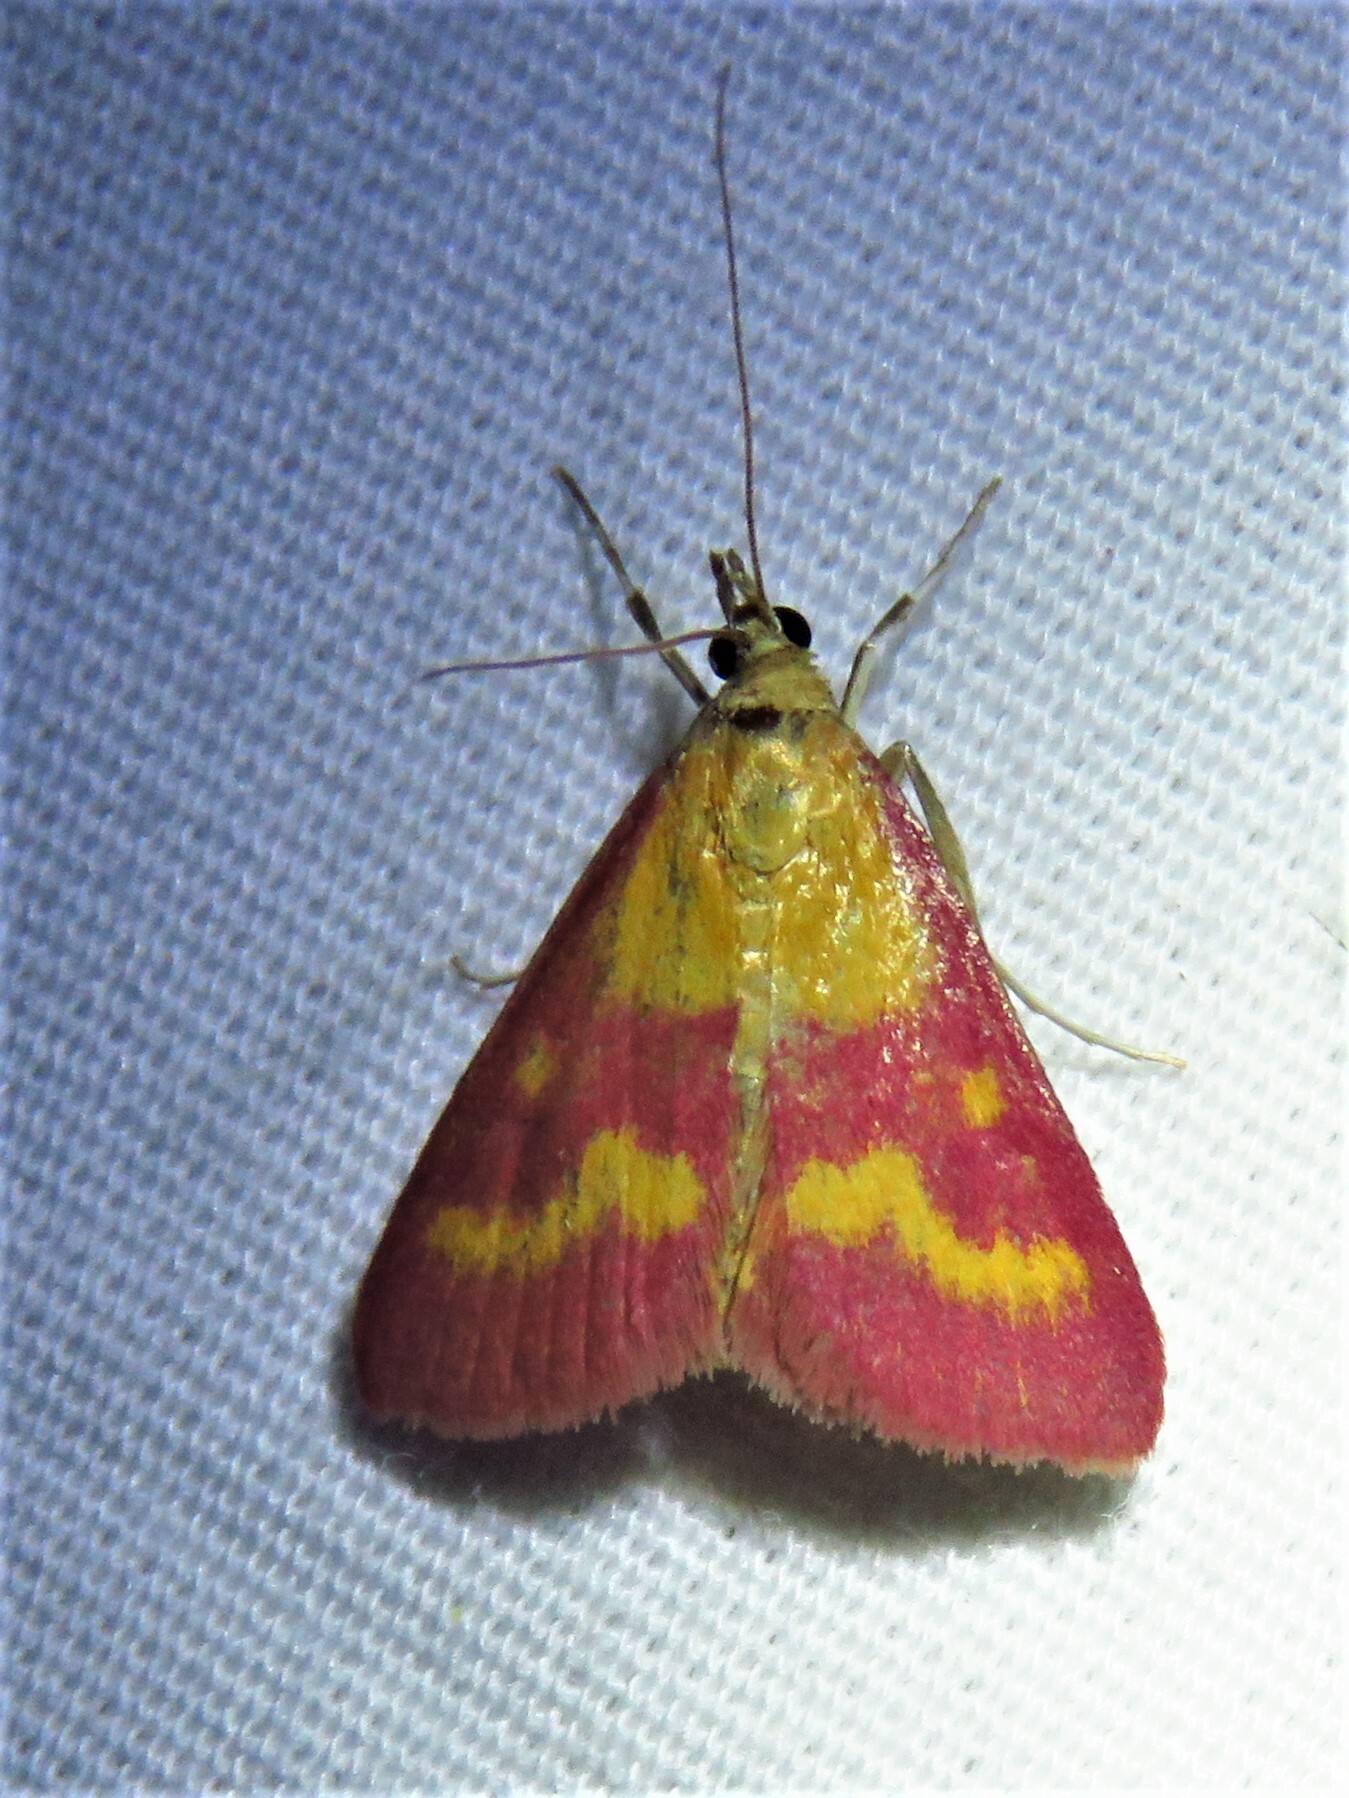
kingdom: Animalia
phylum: Arthropoda
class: Insecta
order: Lepidoptera
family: Crambidae
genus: Pyrausta
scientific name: Pyrausta laticlavia
